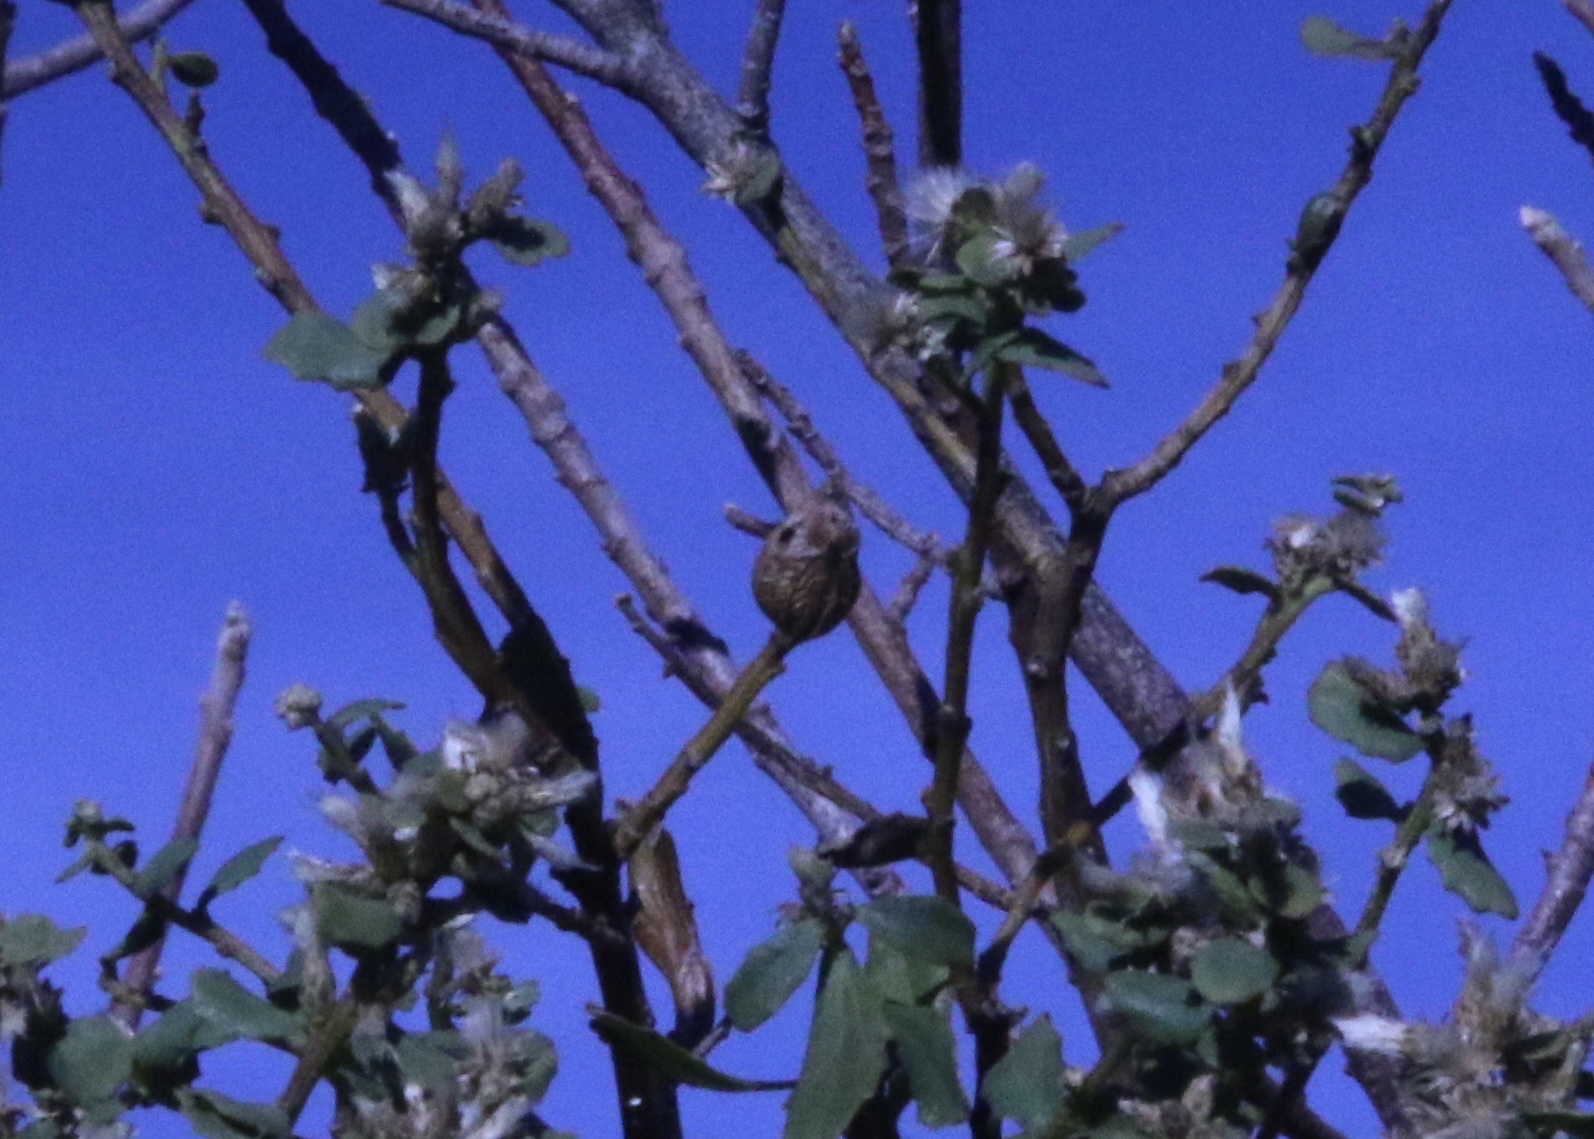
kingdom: Animalia
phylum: Arthropoda
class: Insecta
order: Lepidoptera
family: Gelechiidae
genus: Gnorimoschema
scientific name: Gnorimoschema baccharisella
